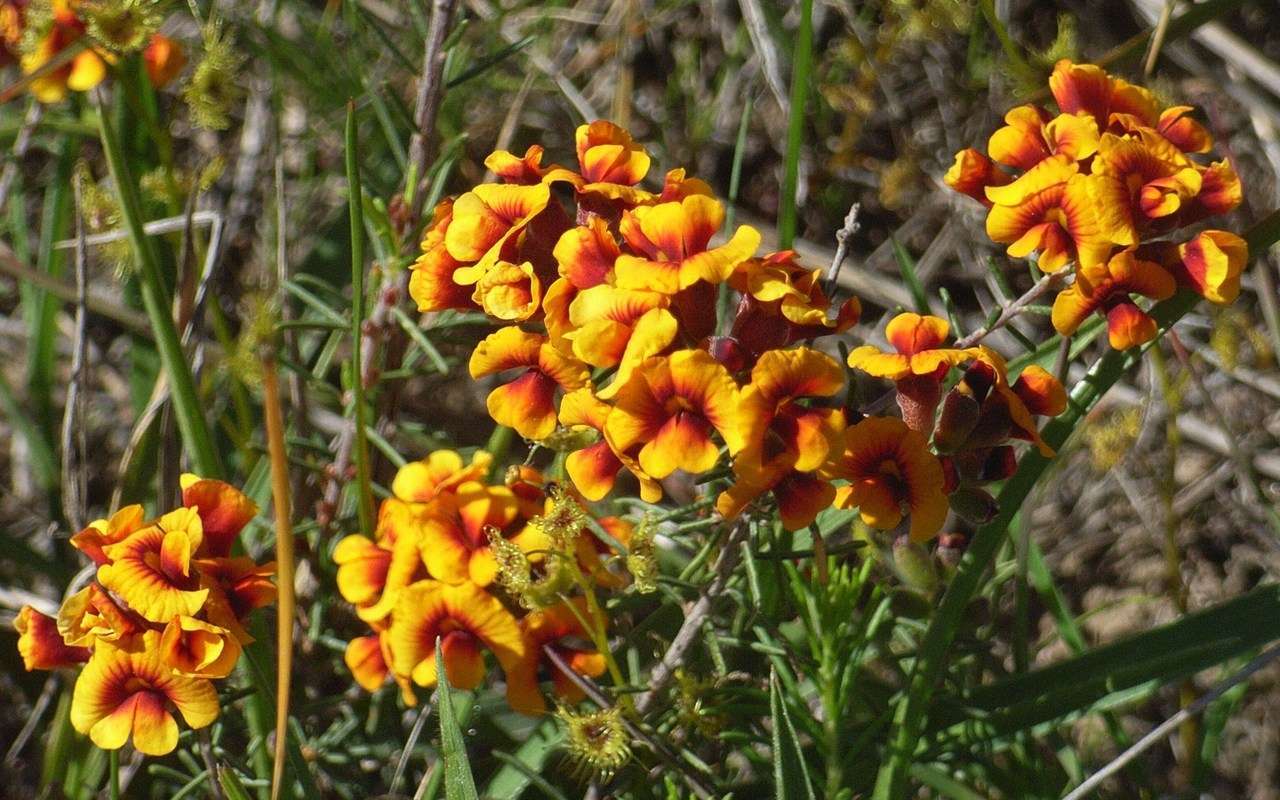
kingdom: Plantae
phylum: Tracheophyta
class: Magnoliopsida
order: Fabales
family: Fabaceae
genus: Dillwynia
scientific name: Dillwynia cinerascens
